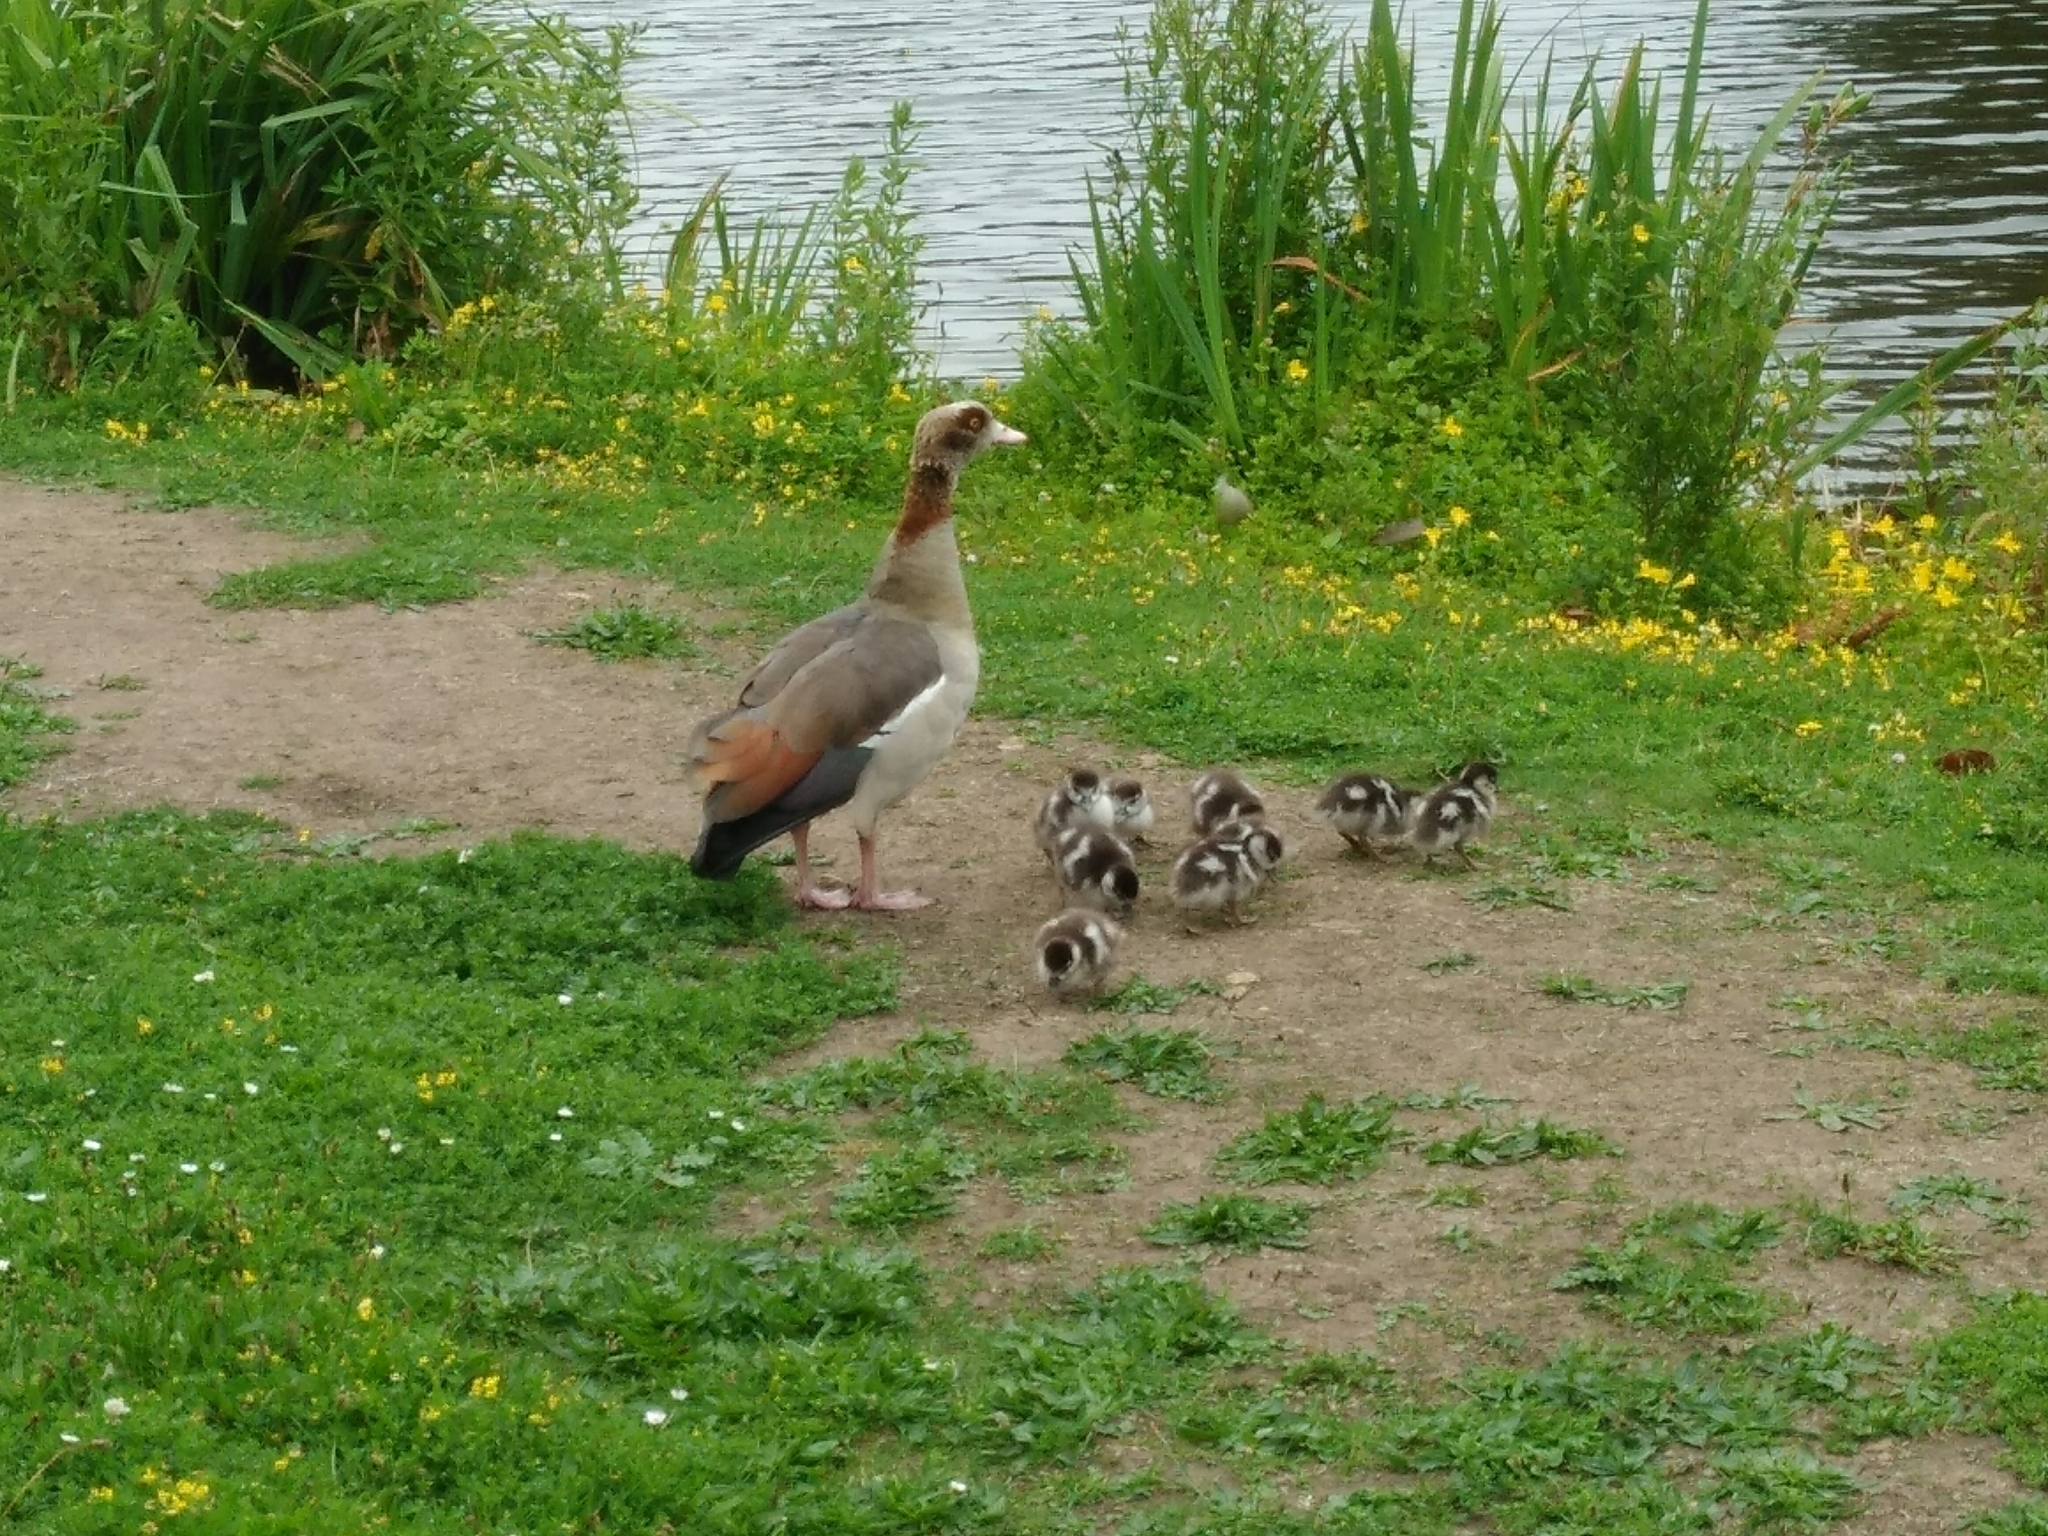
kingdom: Animalia
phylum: Chordata
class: Aves
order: Anseriformes
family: Anatidae
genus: Alopochen
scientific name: Alopochen aegyptiaca
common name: Egyptian goose
